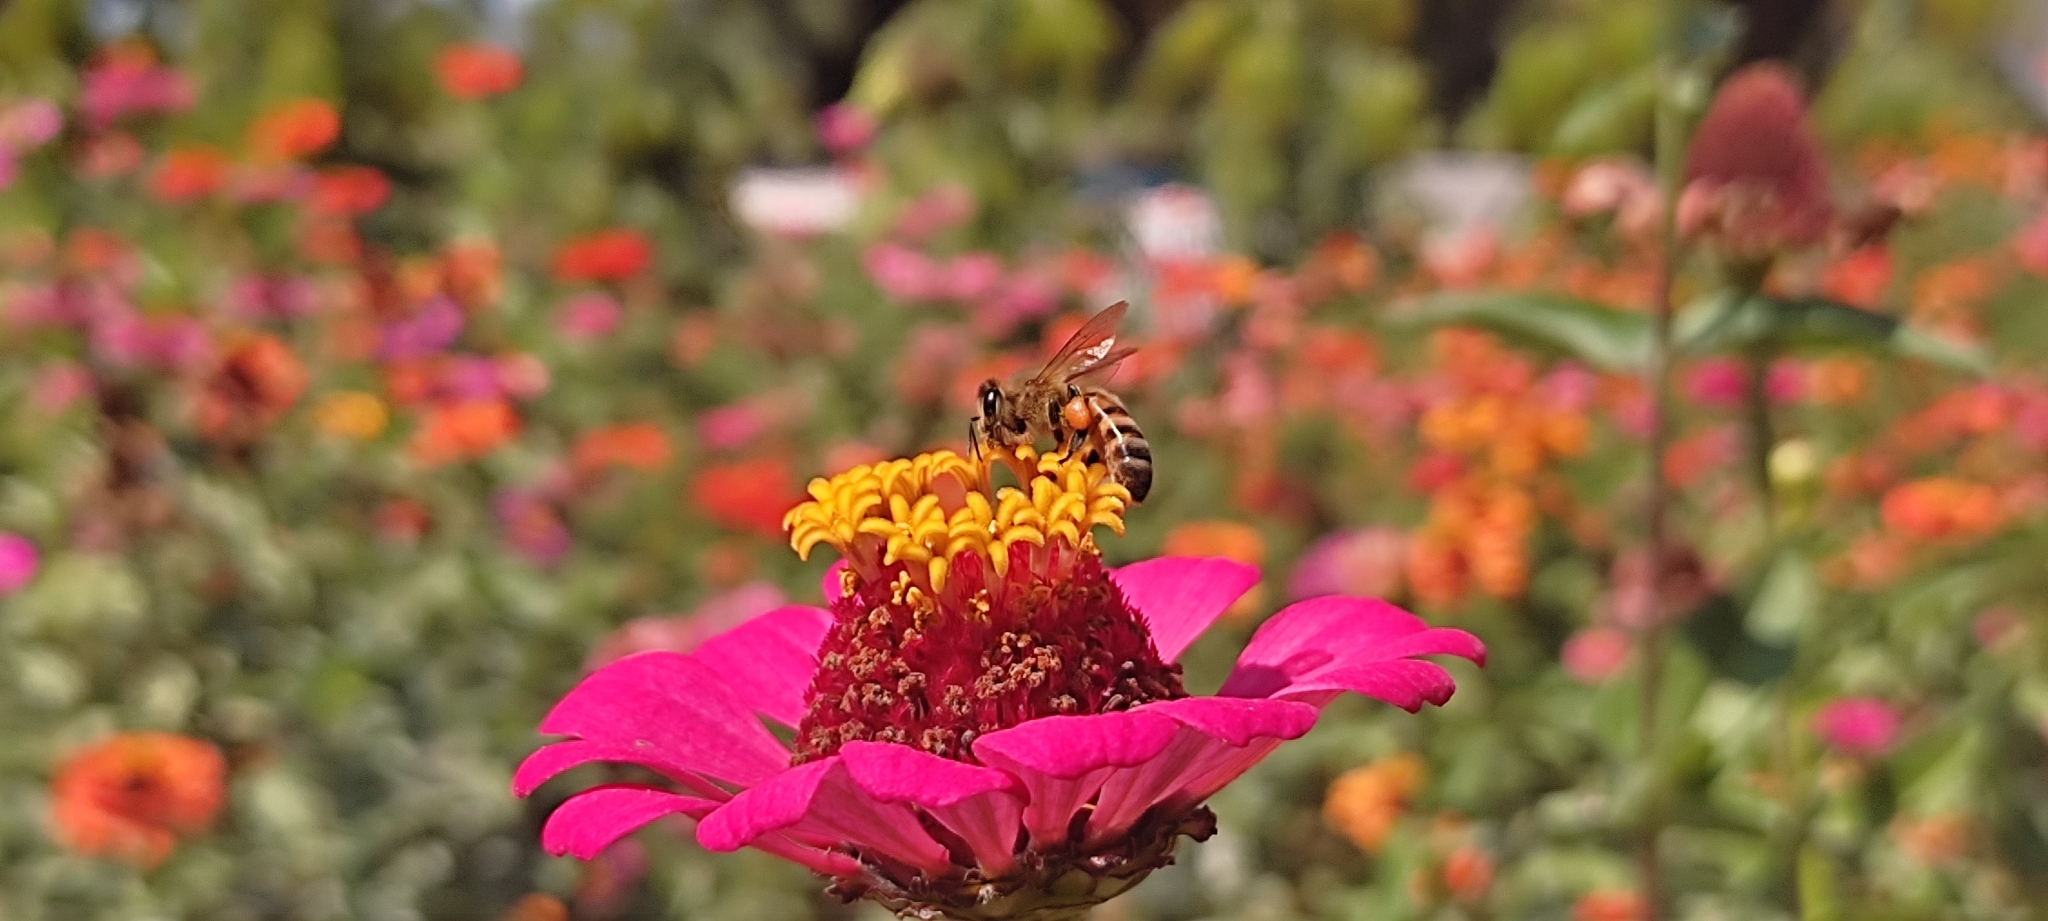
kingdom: Animalia
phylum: Arthropoda
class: Insecta
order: Hymenoptera
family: Apidae
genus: Apis
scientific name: Apis mellifera
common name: Honey bee
